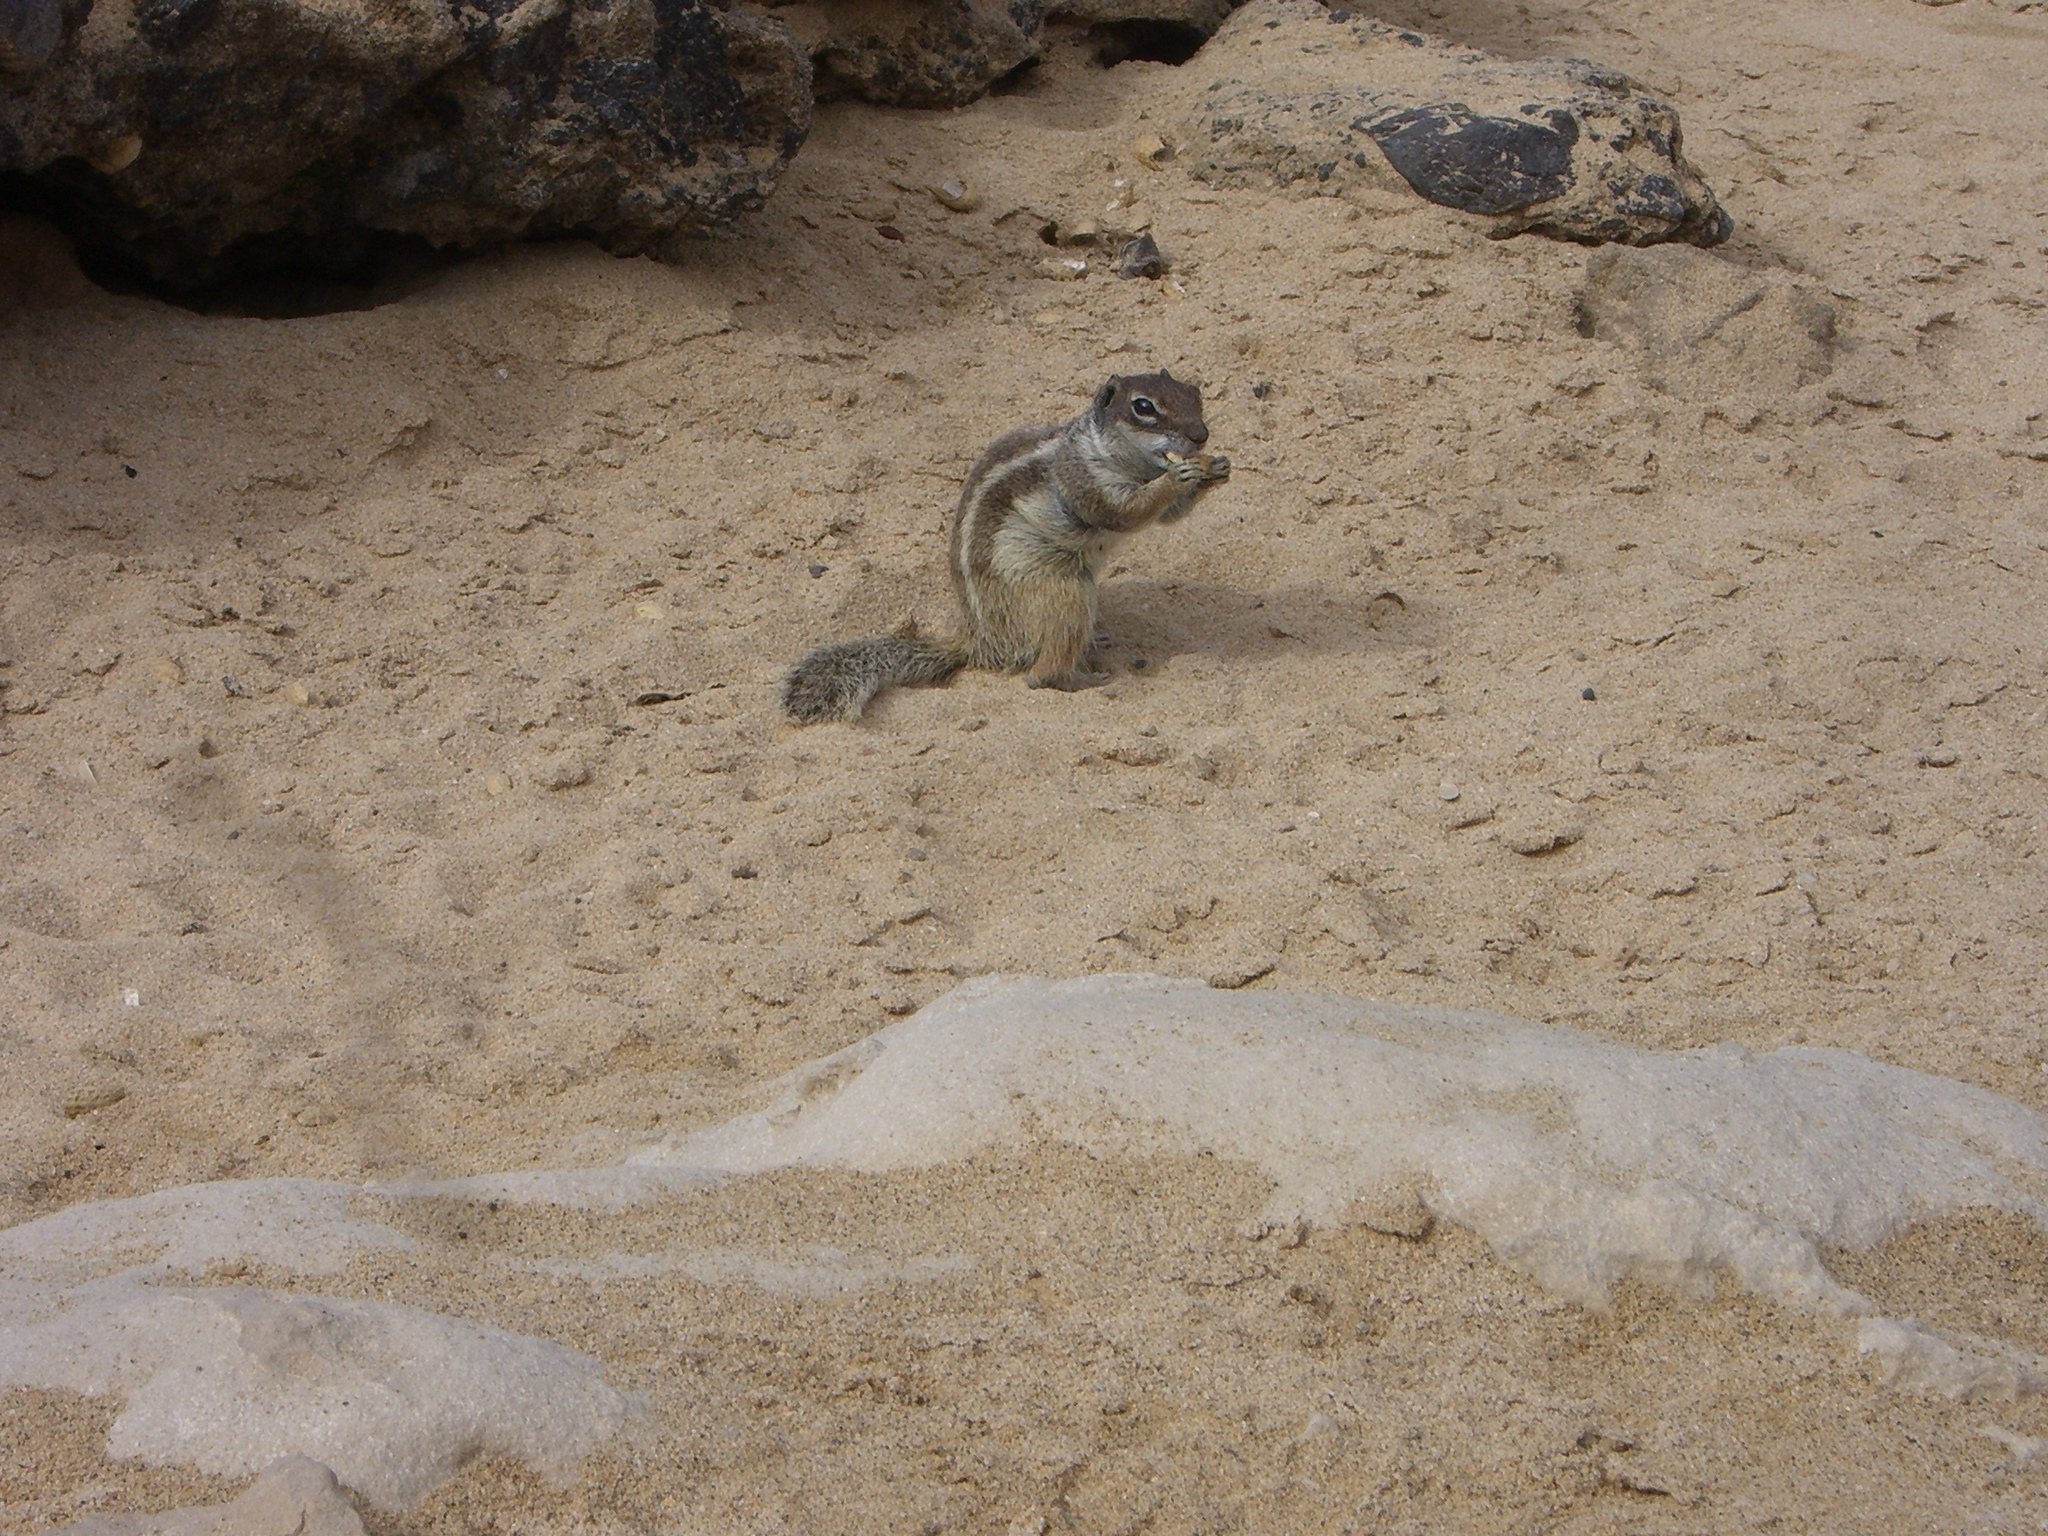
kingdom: Animalia
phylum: Chordata
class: Mammalia
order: Rodentia
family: Sciuridae
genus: Atlantoxerus
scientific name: Atlantoxerus getulus
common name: Barbary ground squirrel
